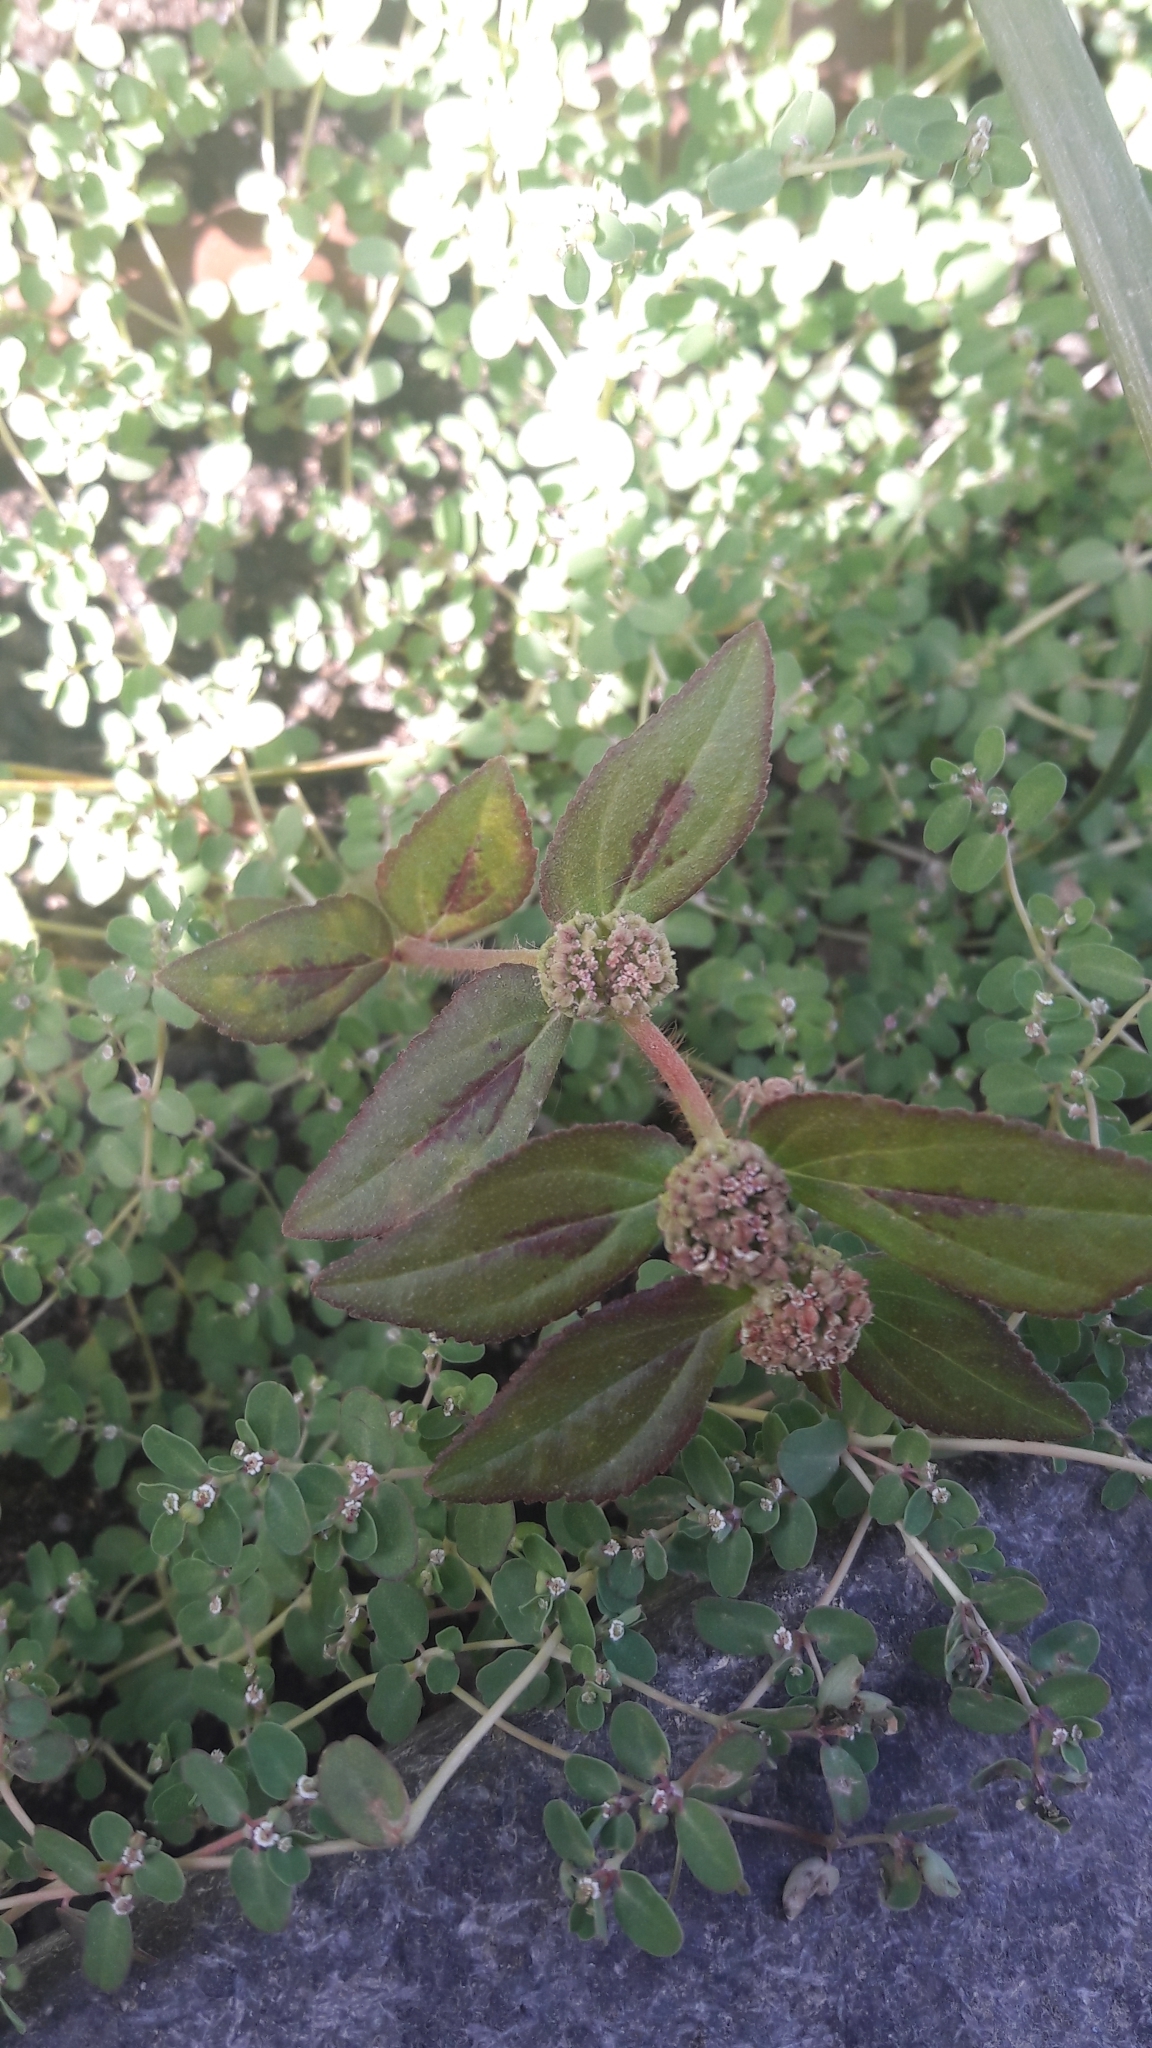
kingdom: Plantae
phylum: Tracheophyta
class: Magnoliopsida
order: Malpighiales
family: Euphorbiaceae
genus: Euphorbia
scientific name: Euphorbia hirta
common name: Pillpod sandmat
